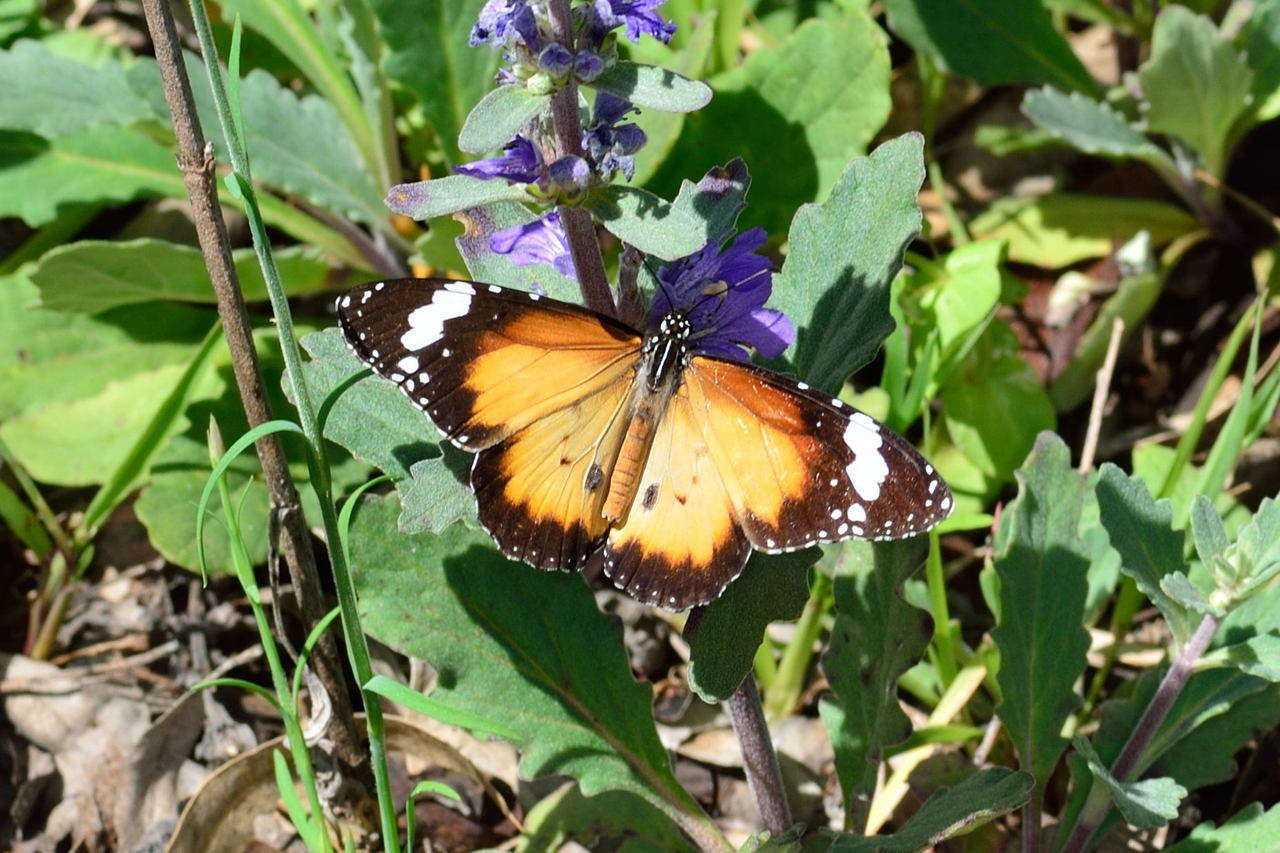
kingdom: Animalia
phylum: Arthropoda
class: Insecta
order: Lepidoptera
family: Nymphalidae
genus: Danaus
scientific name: Danaus chrysippus
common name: Plain tiger
